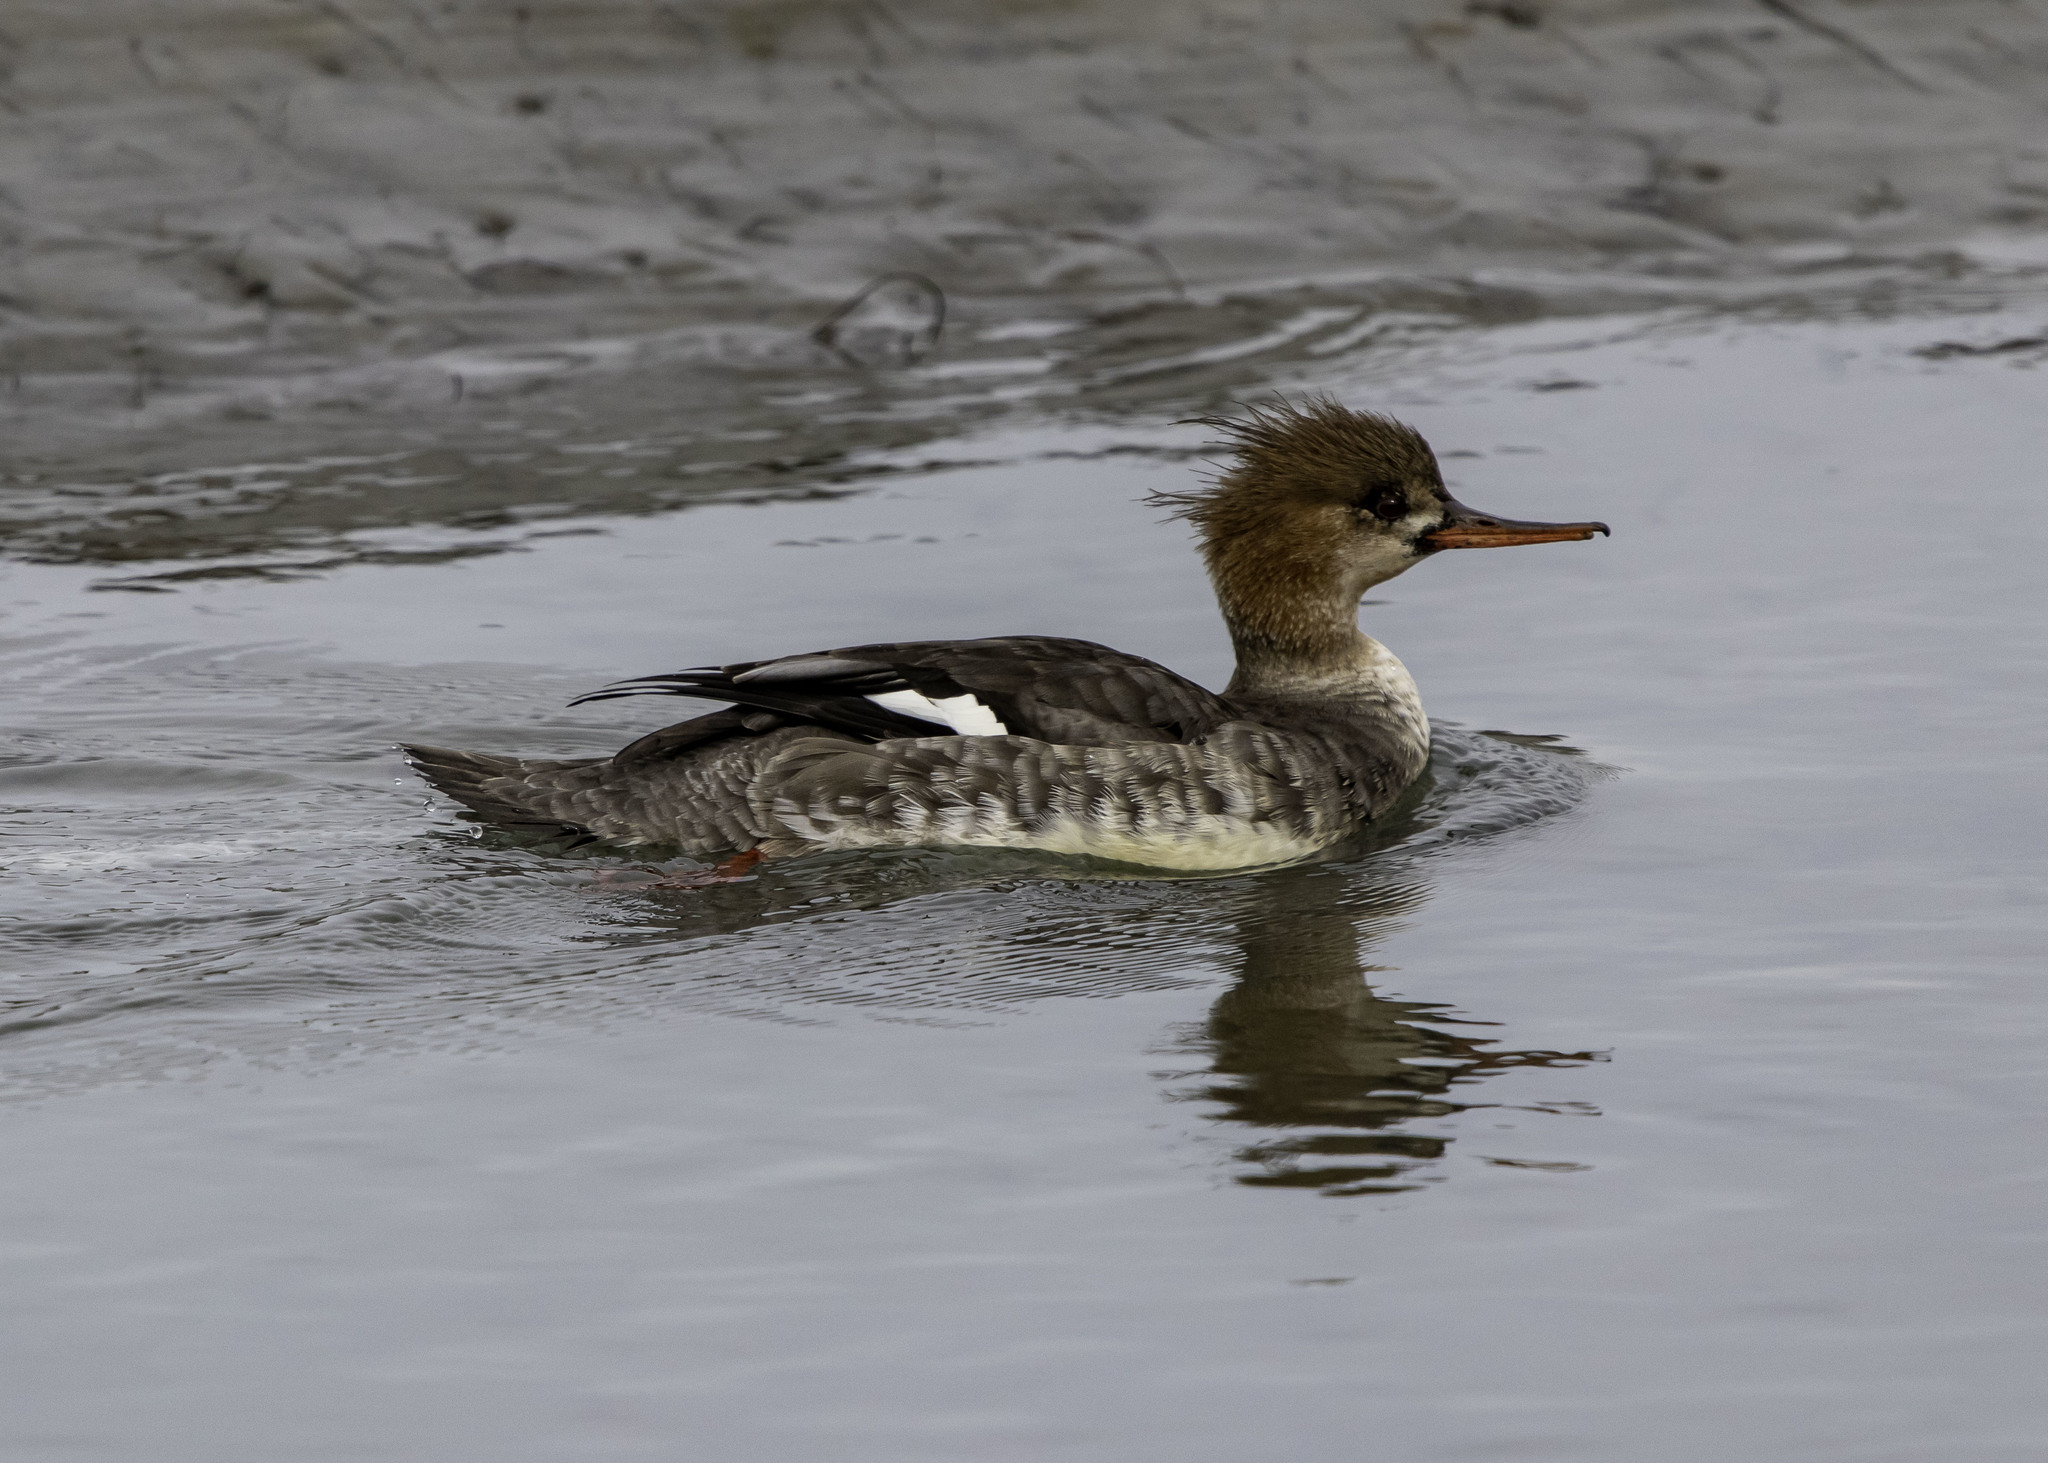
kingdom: Animalia
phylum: Chordata
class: Aves
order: Anseriformes
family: Anatidae
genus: Mergus
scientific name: Mergus serrator
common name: Red-breasted merganser
